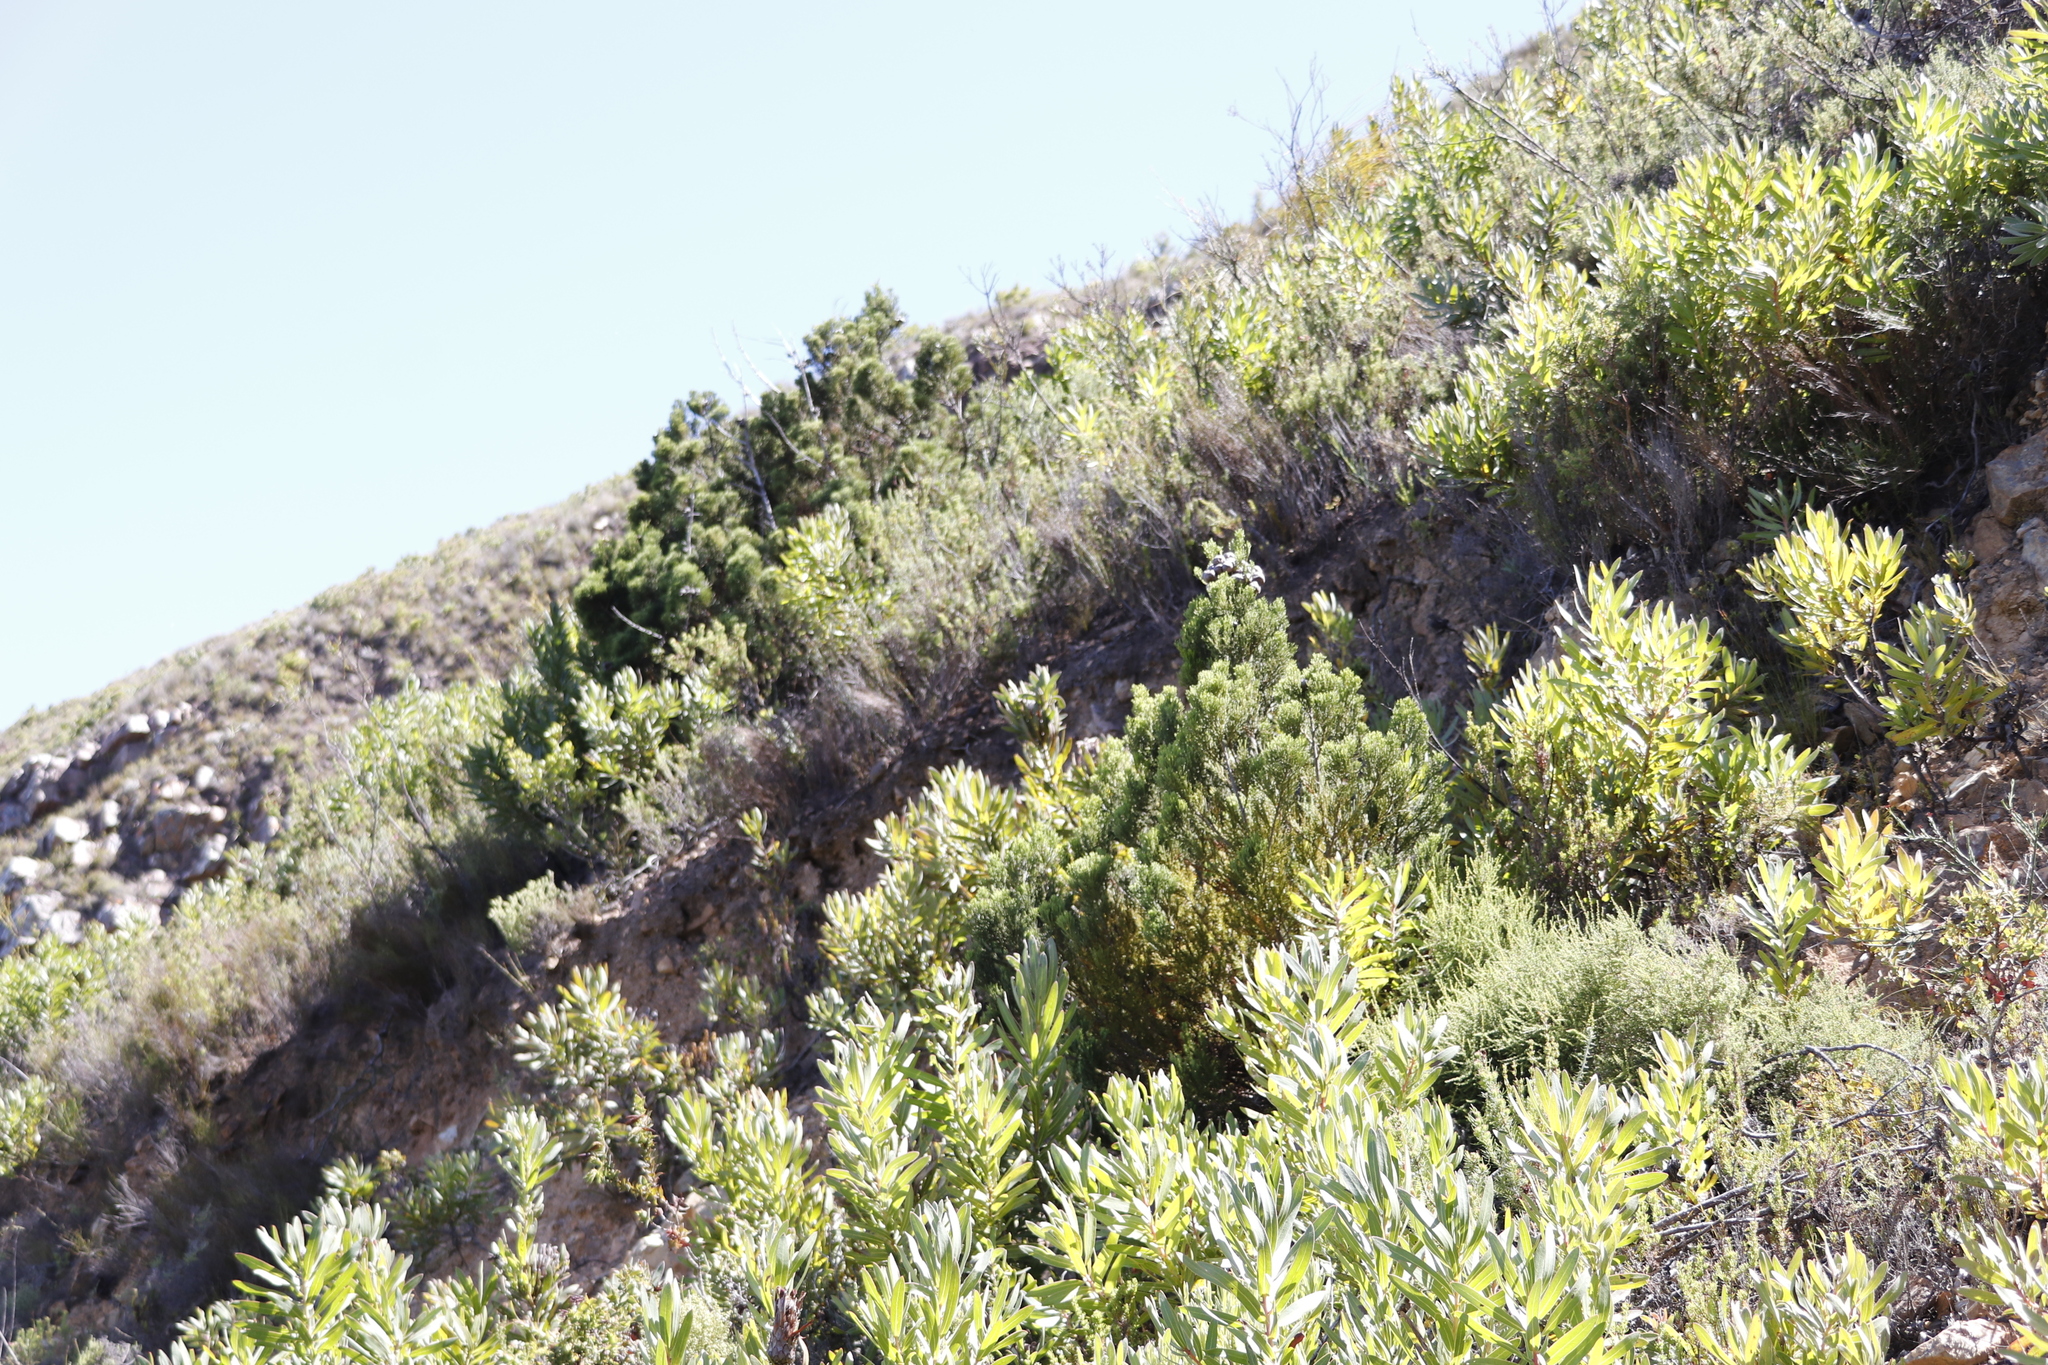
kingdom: Plantae
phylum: Tracheophyta
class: Pinopsida
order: Pinales
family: Cupressaceae
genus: Widdringtonia
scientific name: Widdringtonia nodiflora
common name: Cape cypress
